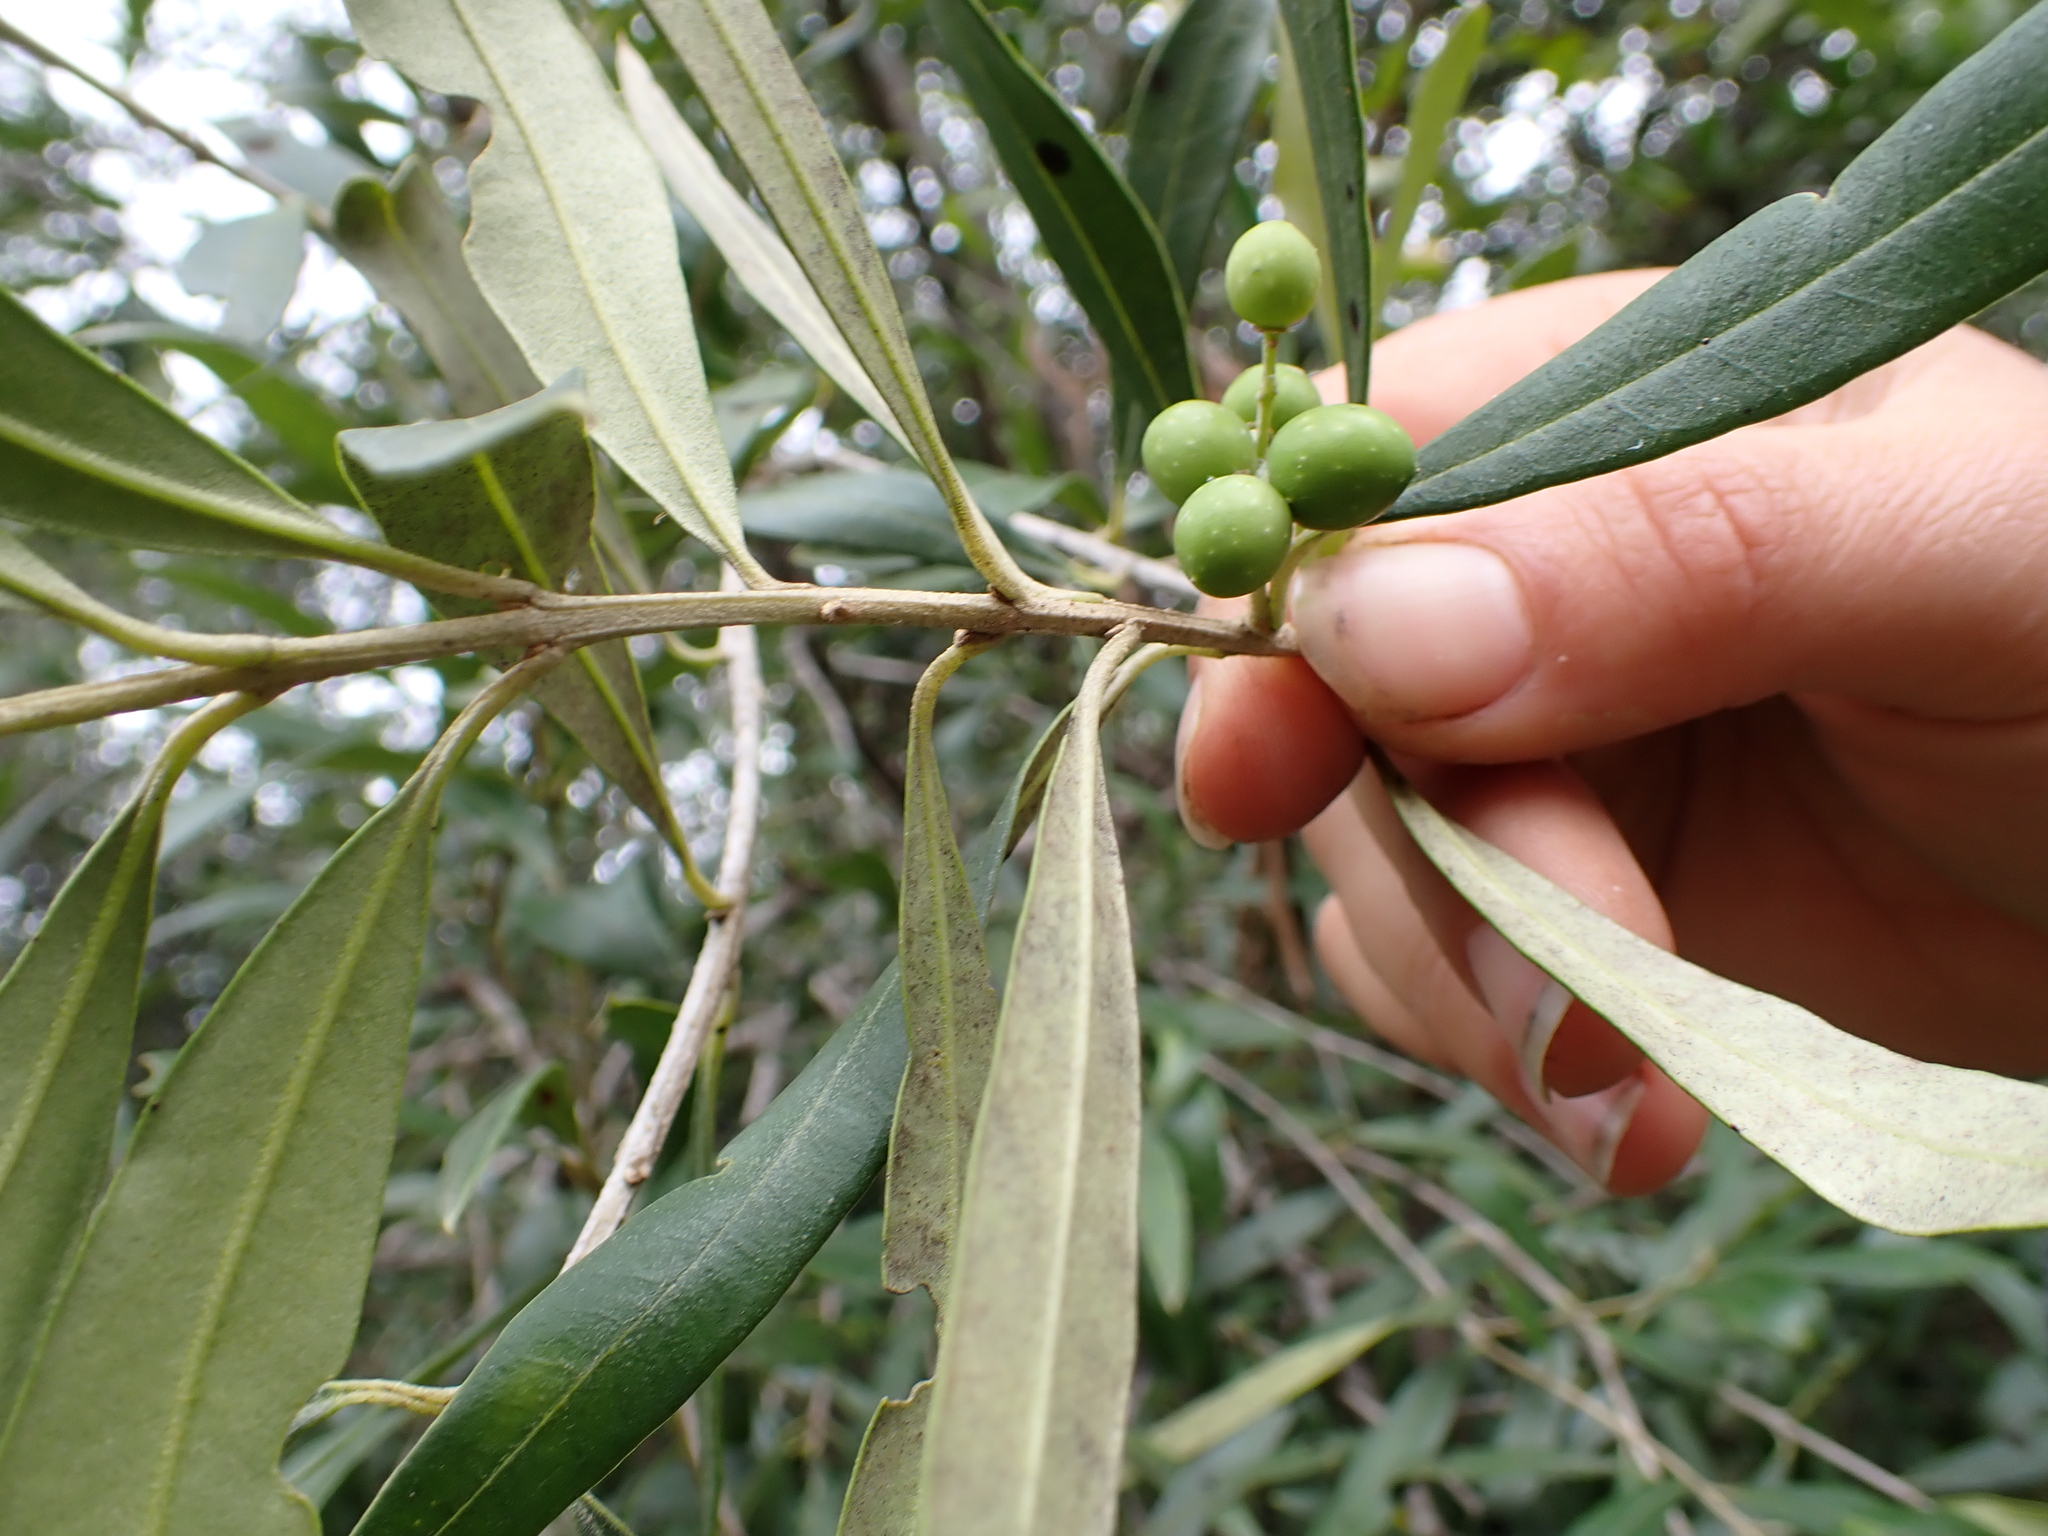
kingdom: Plantae
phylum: Tracheophyta
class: Magnoliopsida
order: Lamiales
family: Oleaceae
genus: Olea
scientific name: Olea europaea
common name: Olive
